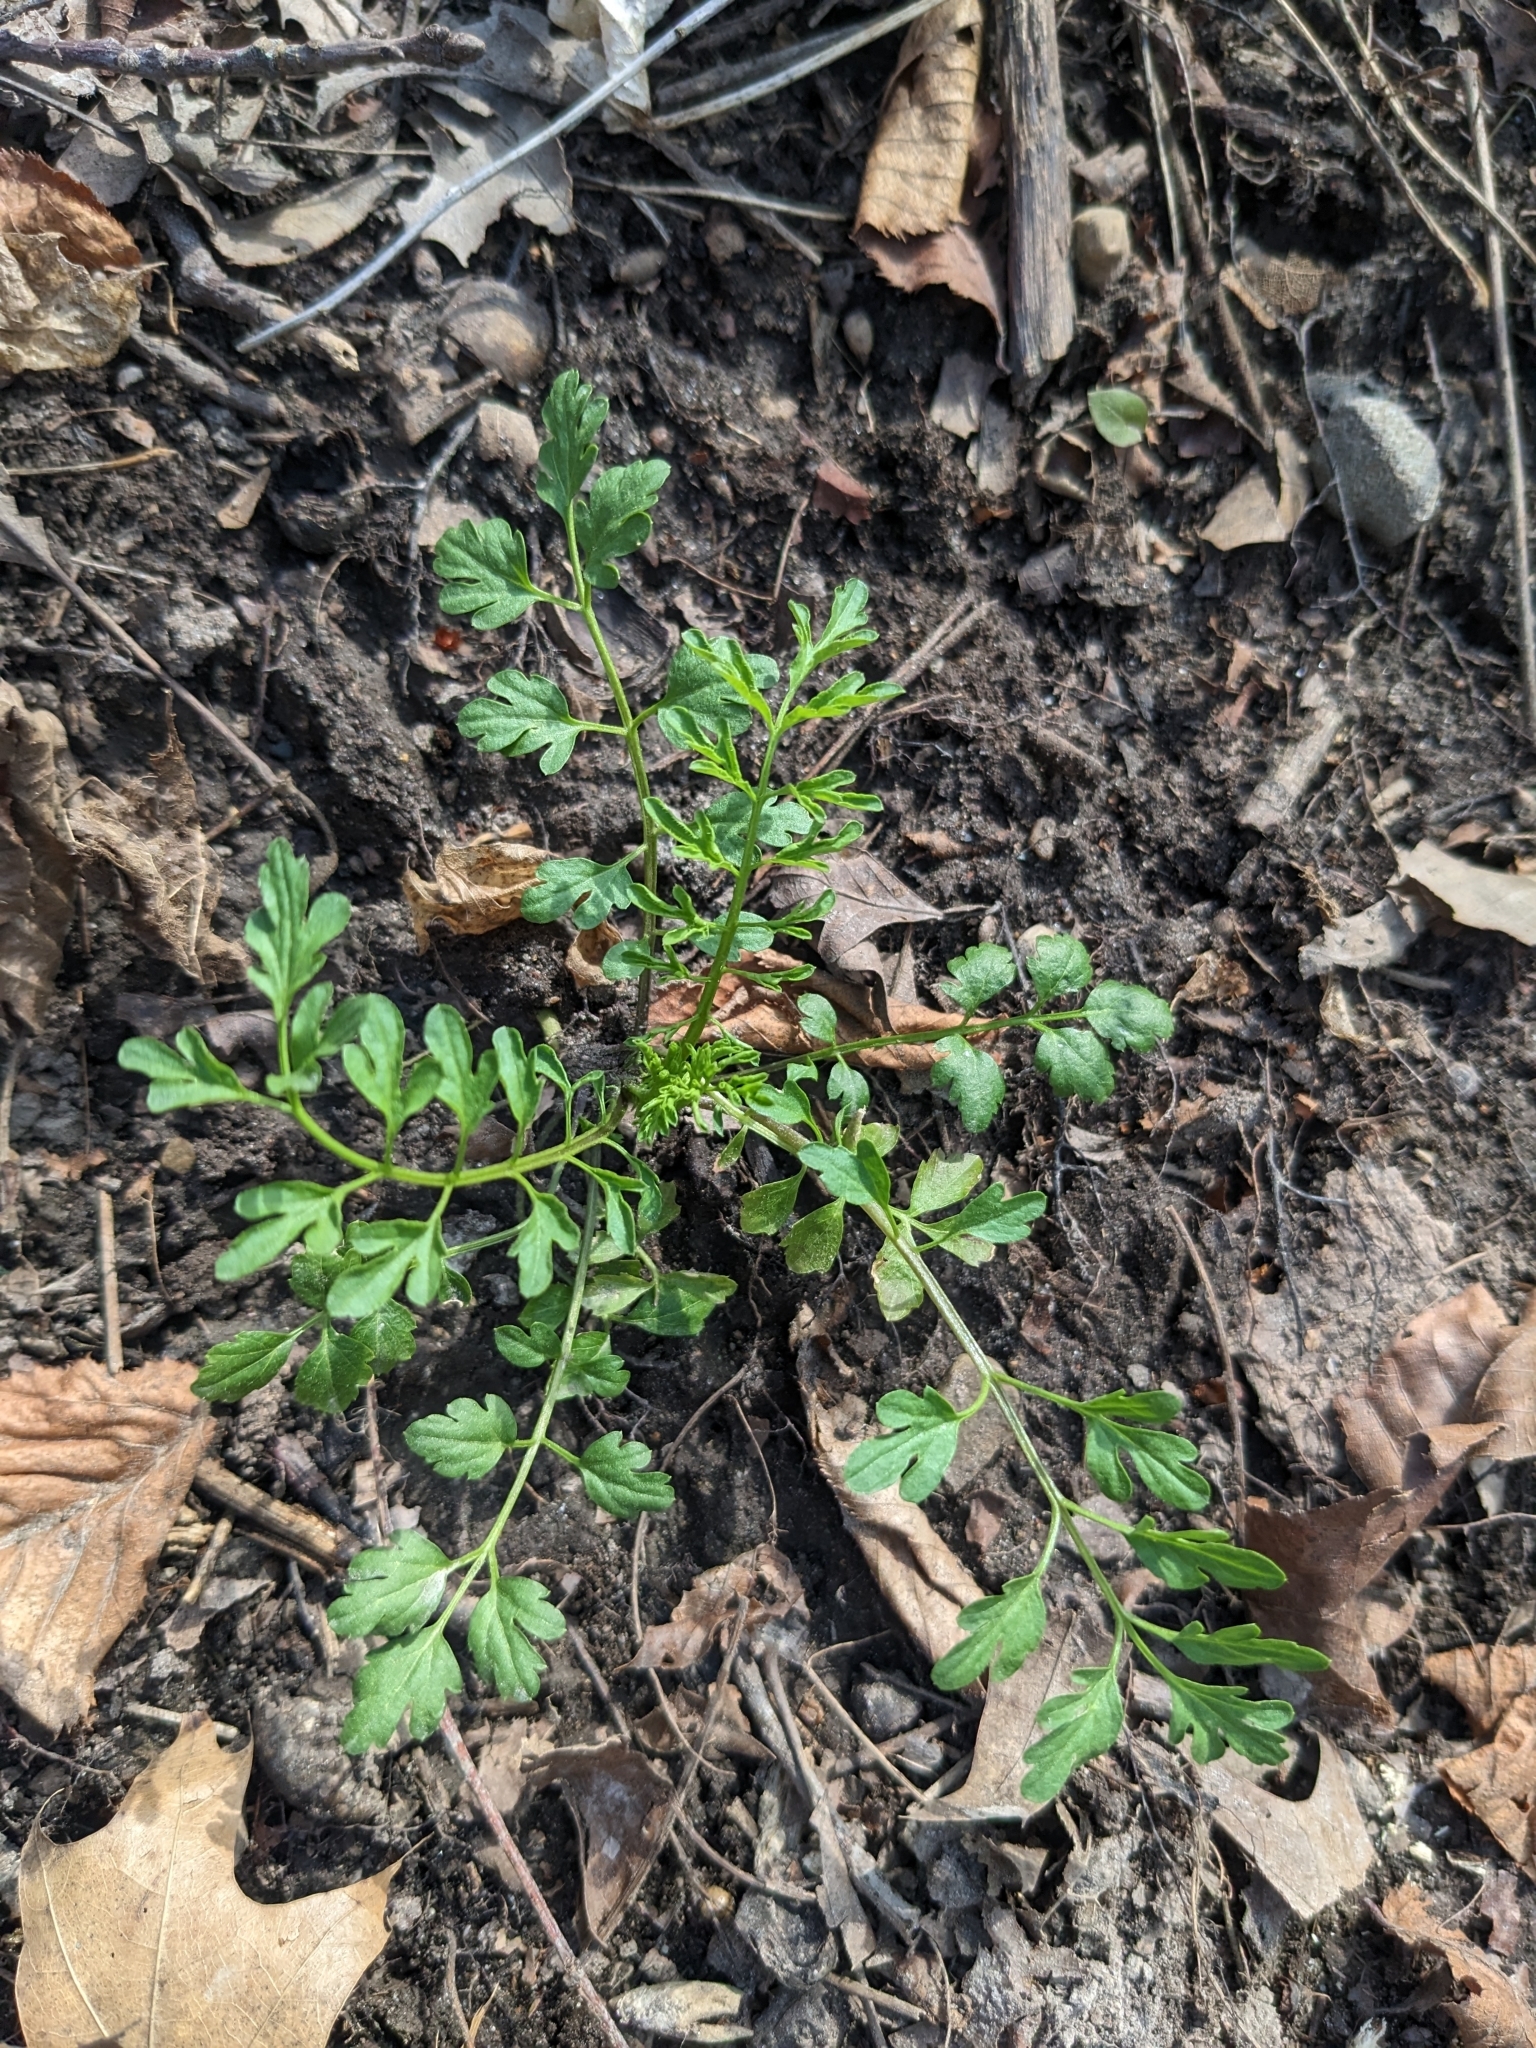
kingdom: Plantae
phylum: Tracheophyta
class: Magnoliopsida
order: Brassicales
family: Brassicaceae
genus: Cardamine
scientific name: Cardamine impatiens
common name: Narrow-leaved bitter-cress
